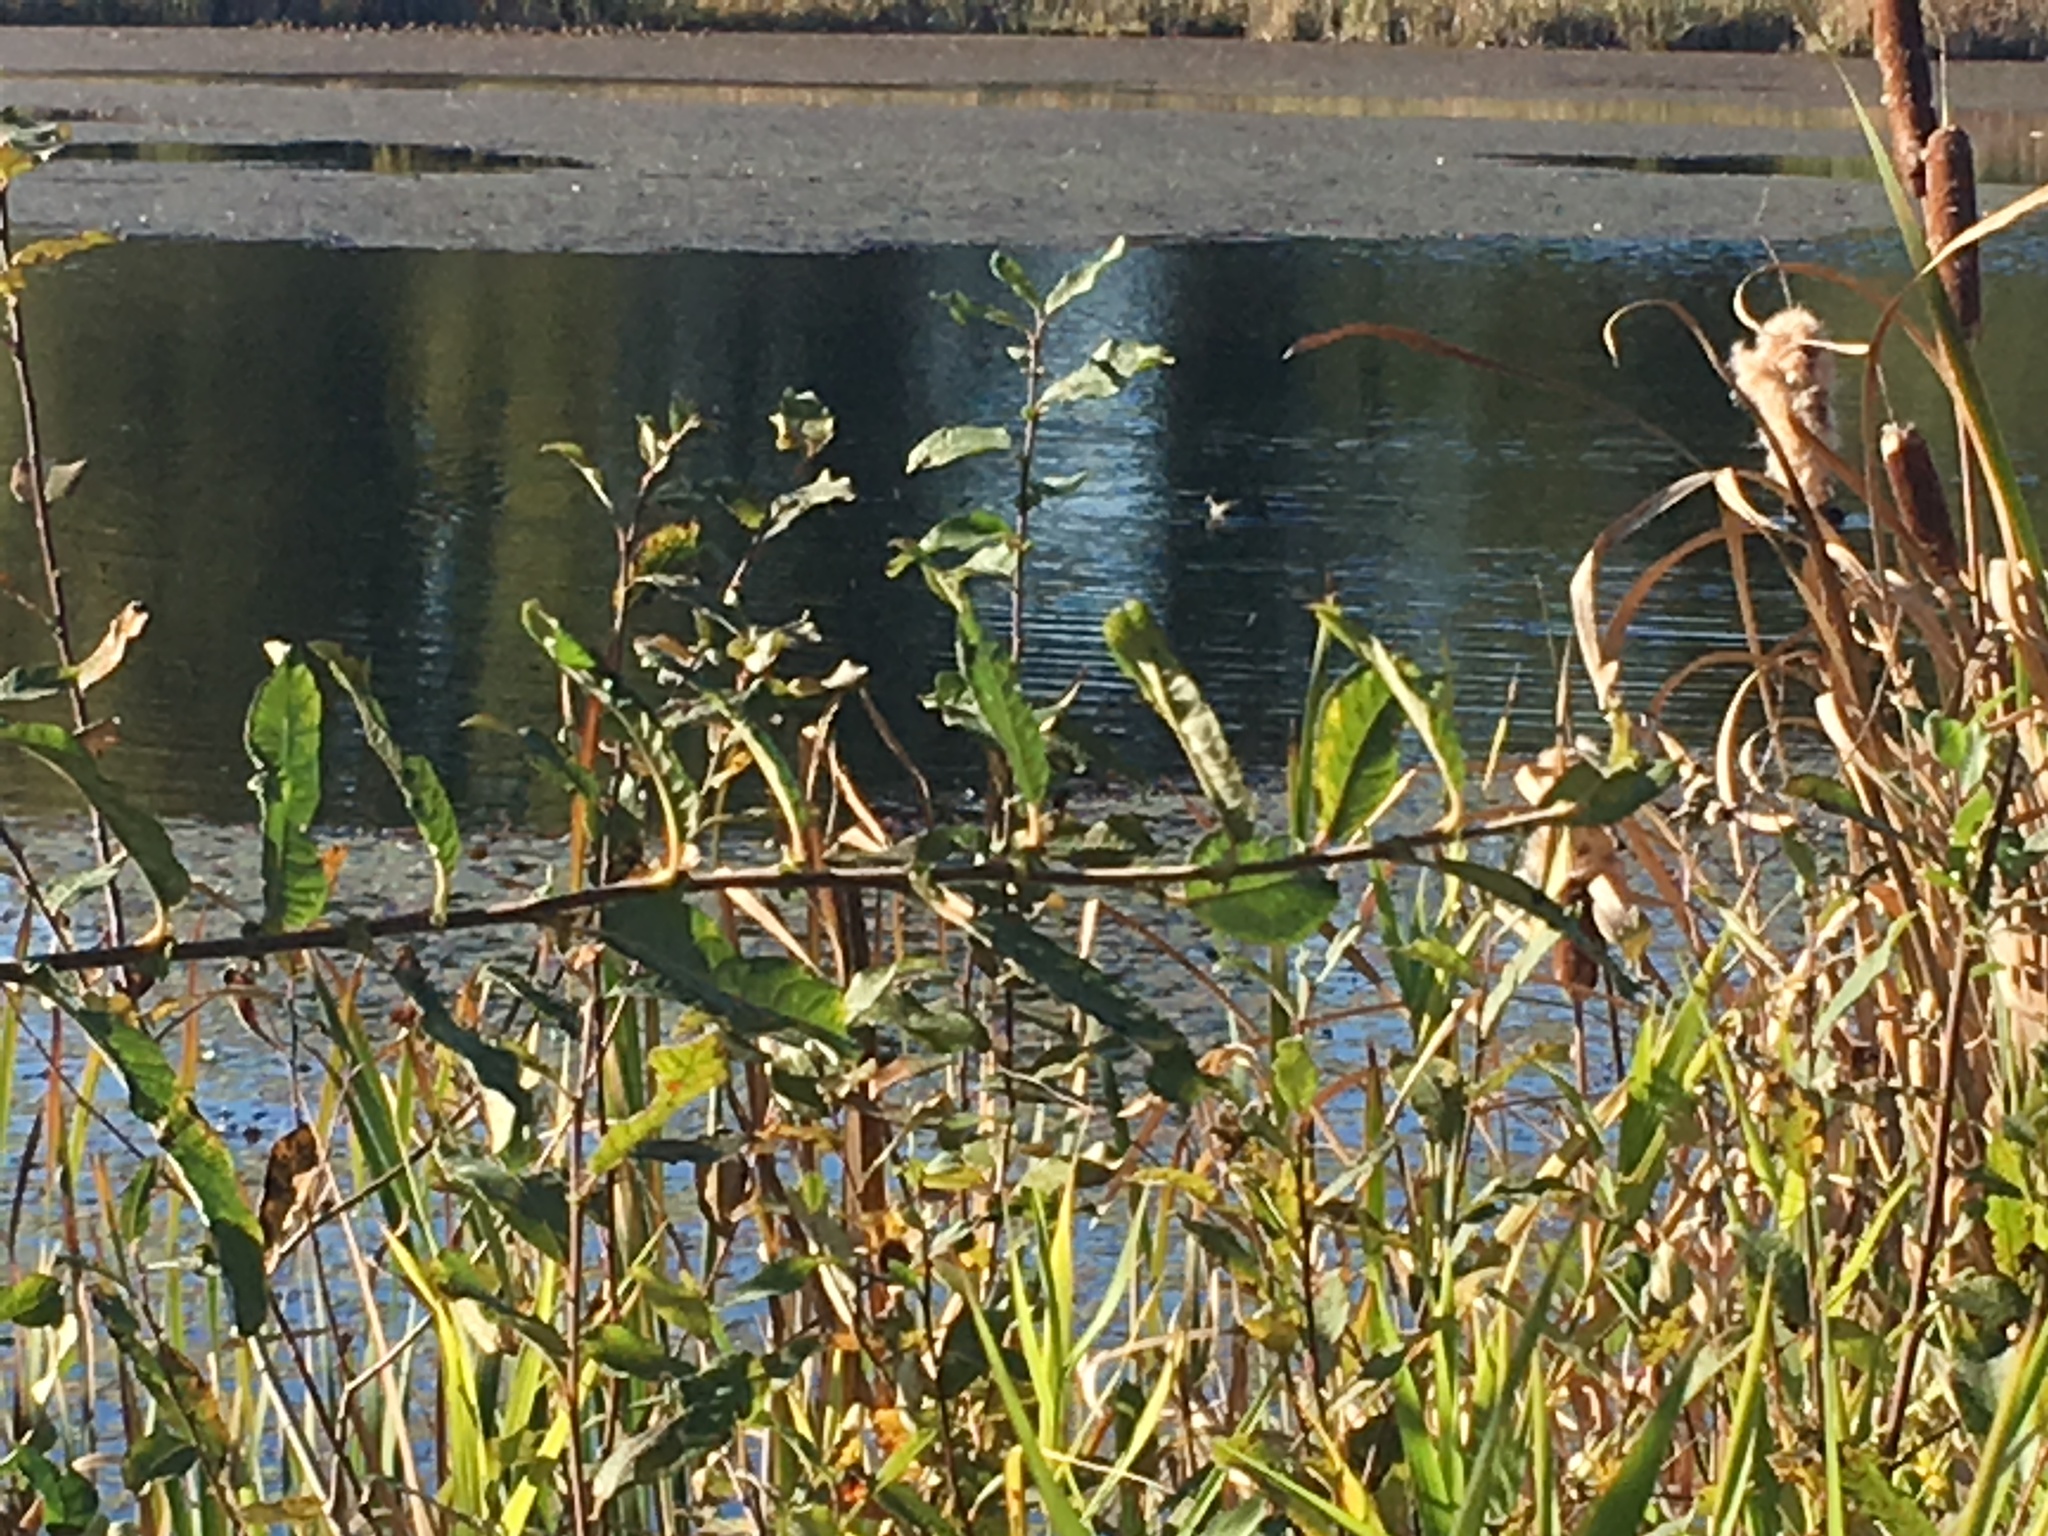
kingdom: Animalia
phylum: Chordata
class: Aves
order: Gruiformes
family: Rallidae
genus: Fulica
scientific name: Fulica americana
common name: American coot
